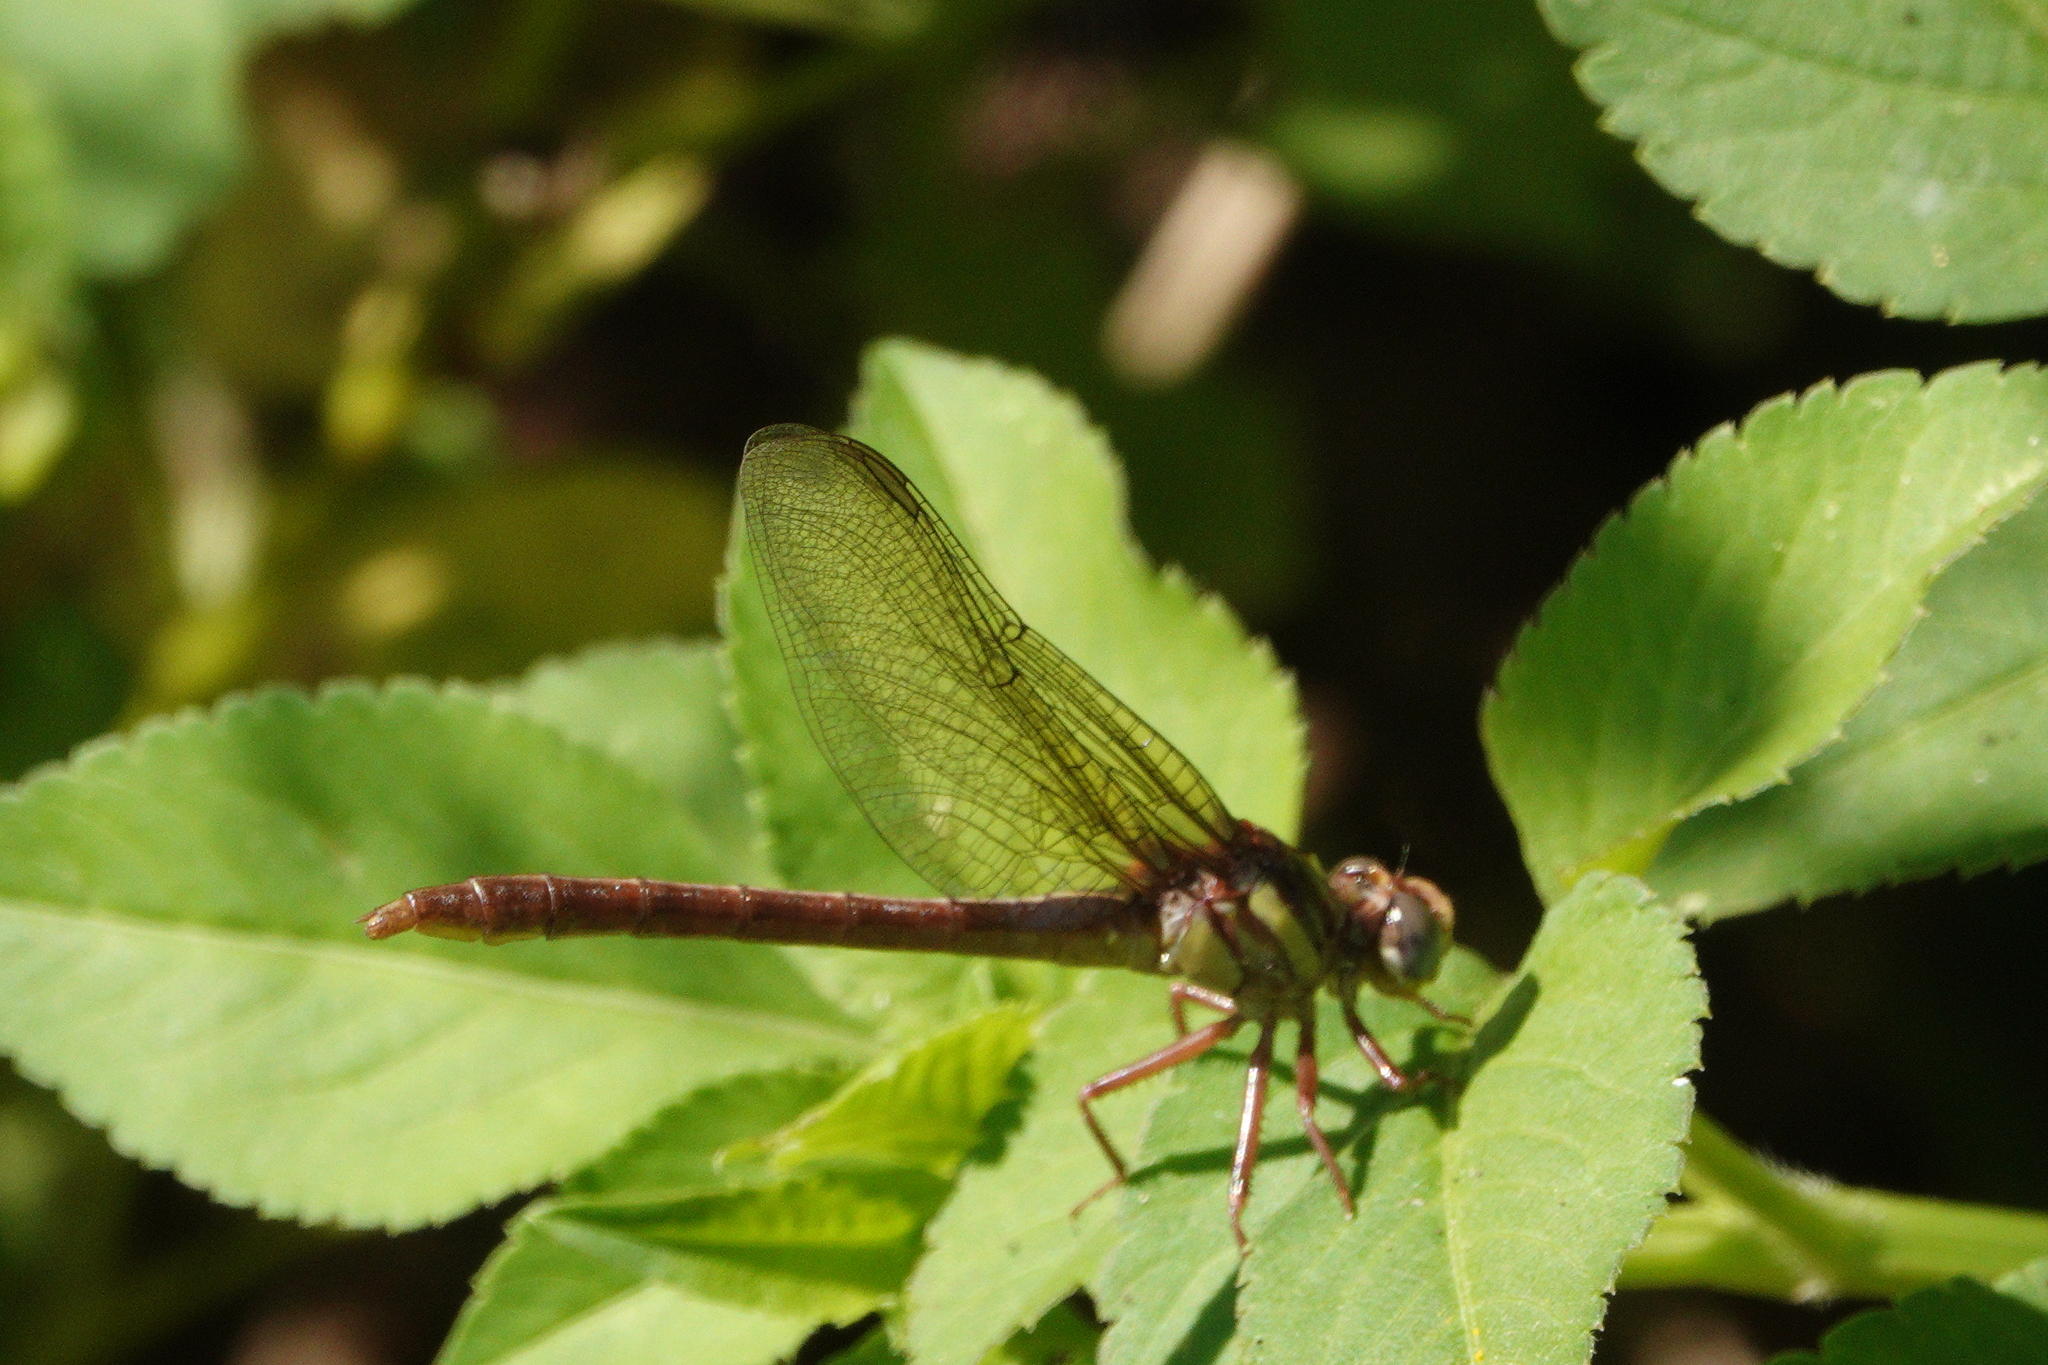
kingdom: Animalia
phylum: Arthropoda
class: Insecta
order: Odonata
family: Gomphidae
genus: Phanogomphus
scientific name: Phanogomphus minutus
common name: Cypress clubtail
